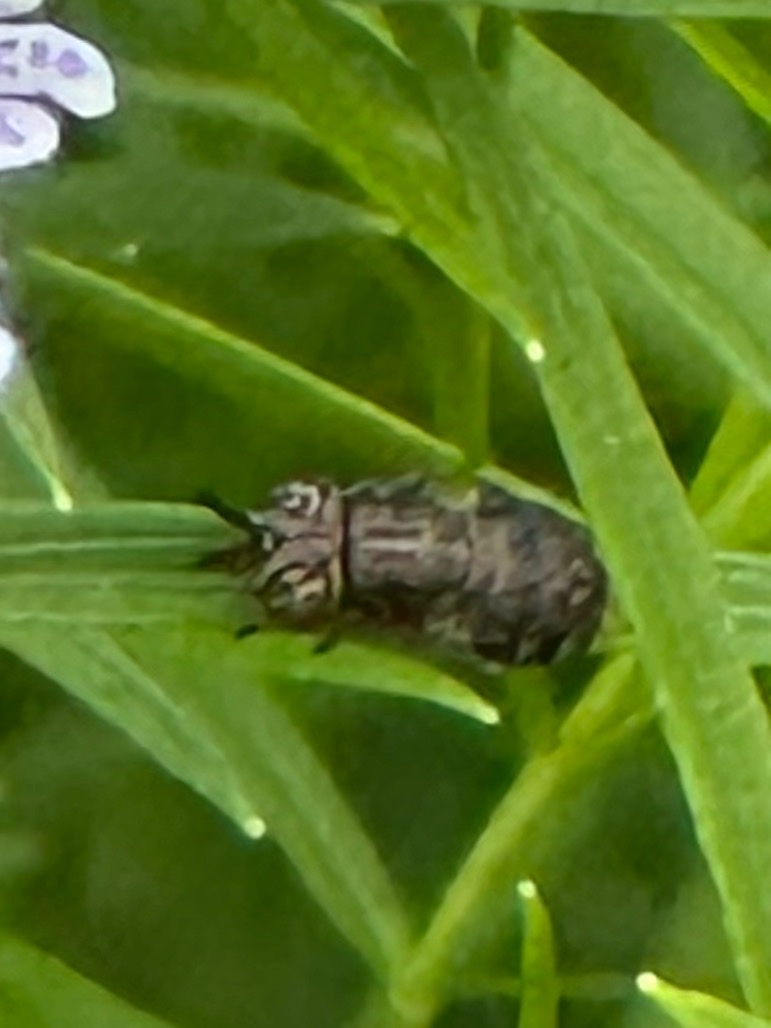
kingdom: Animalia
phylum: Arthropoda
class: Insecta
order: Diptera
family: Syrphidae
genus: Orthonevra
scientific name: Orthonevra nitida
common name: Wavy mucksucker
